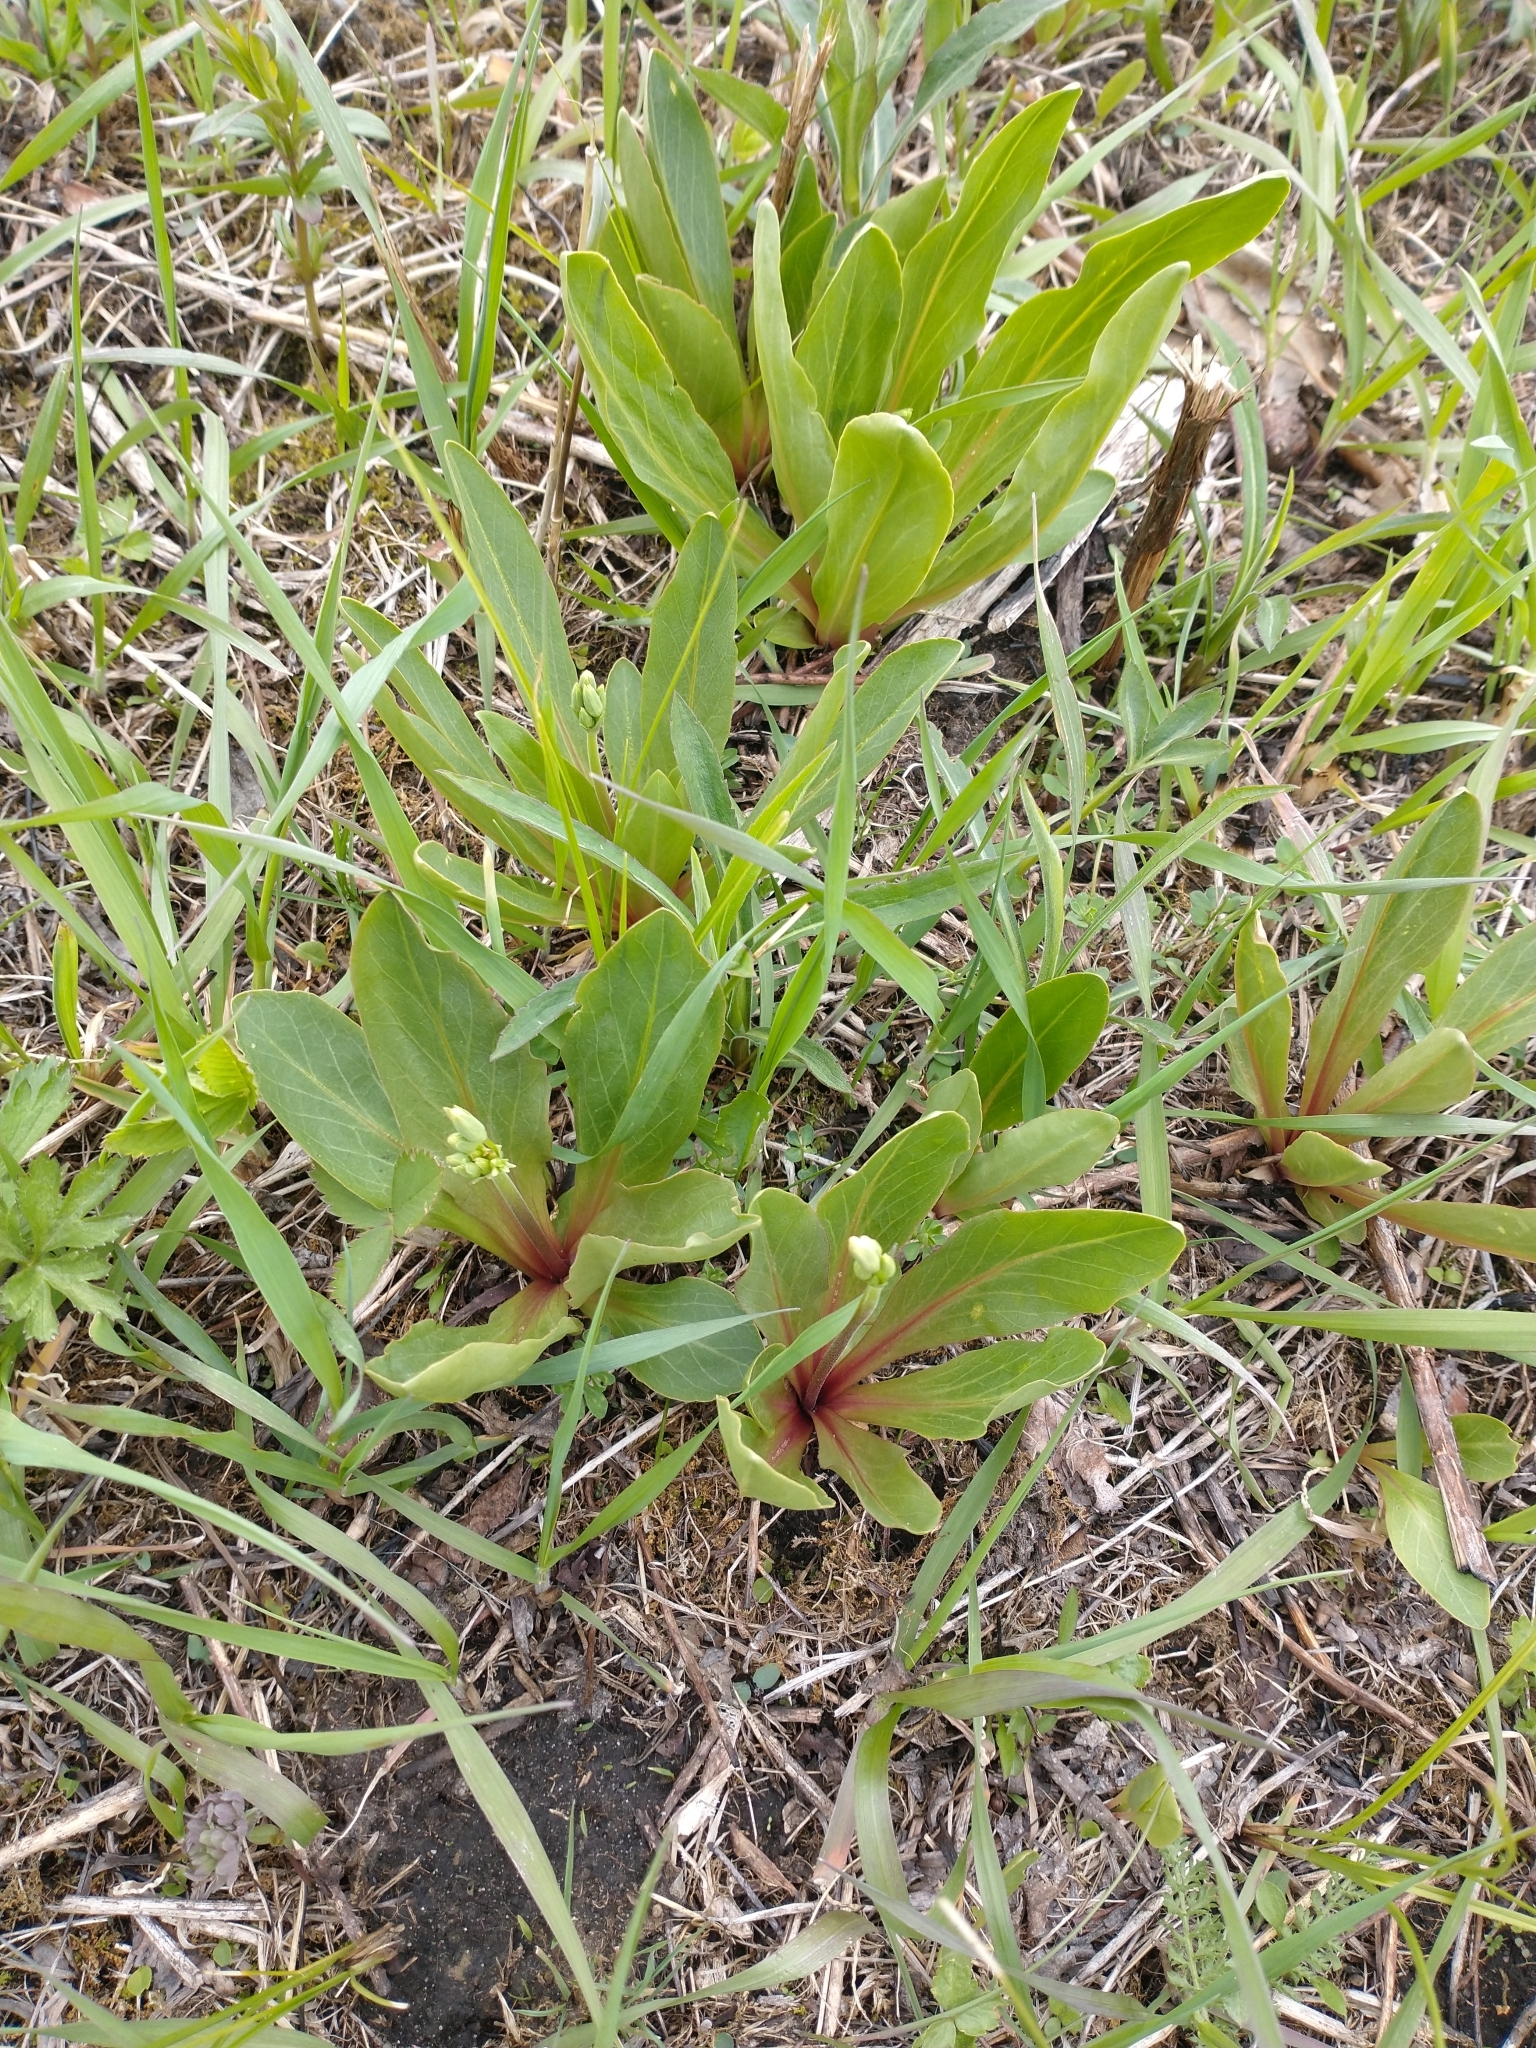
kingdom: Plantae
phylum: Tracheophyta
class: Magnoliopsida
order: Ericales
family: Primulaceae
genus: Dodecatheon
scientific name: Dodecatheon meadia
